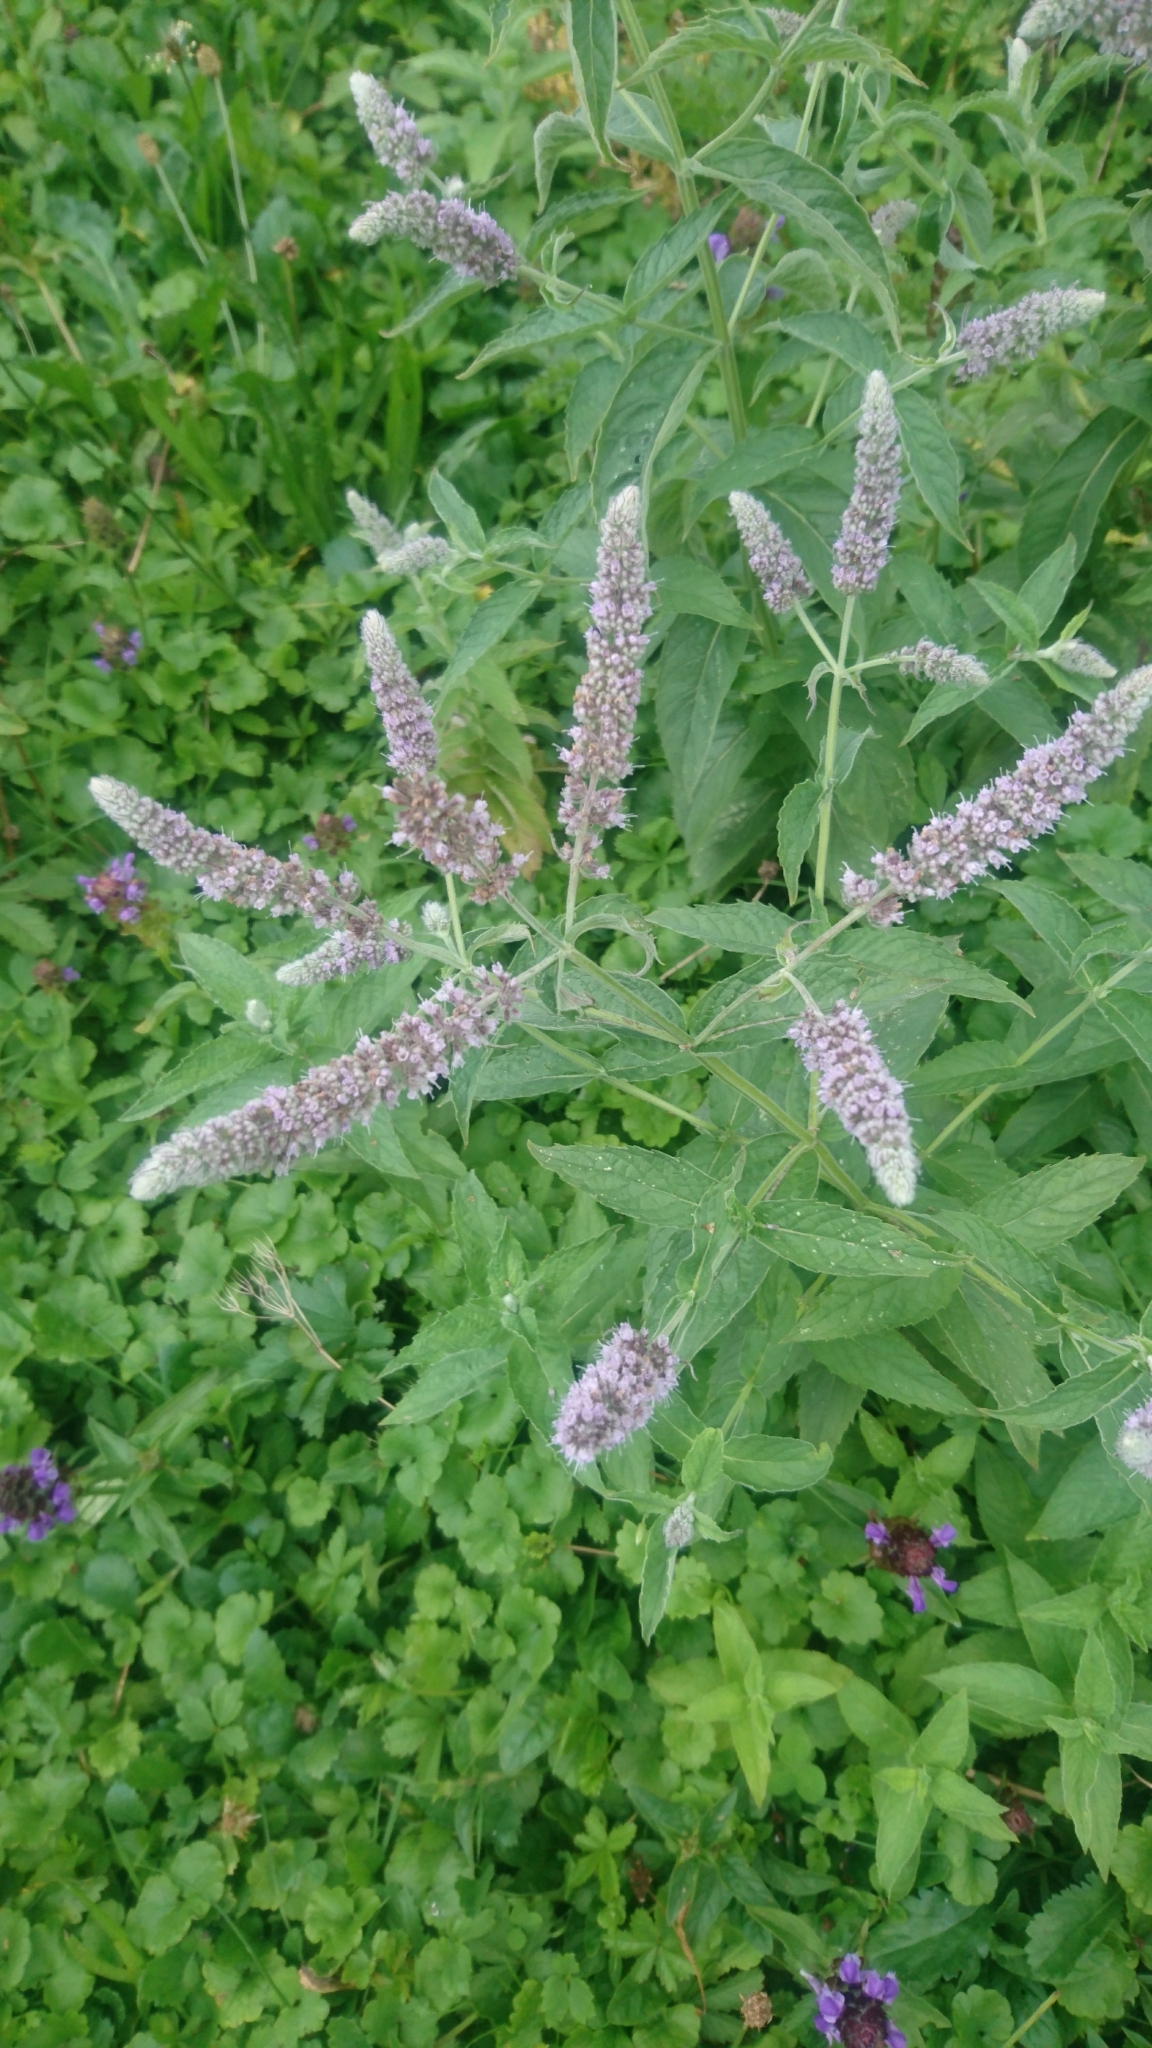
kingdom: Plantae
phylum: Tracheophyta
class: Magnoliopsida
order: Lamiales
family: Lamiaceae
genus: Mentha
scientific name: Mentha longifolia
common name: Horse mint
